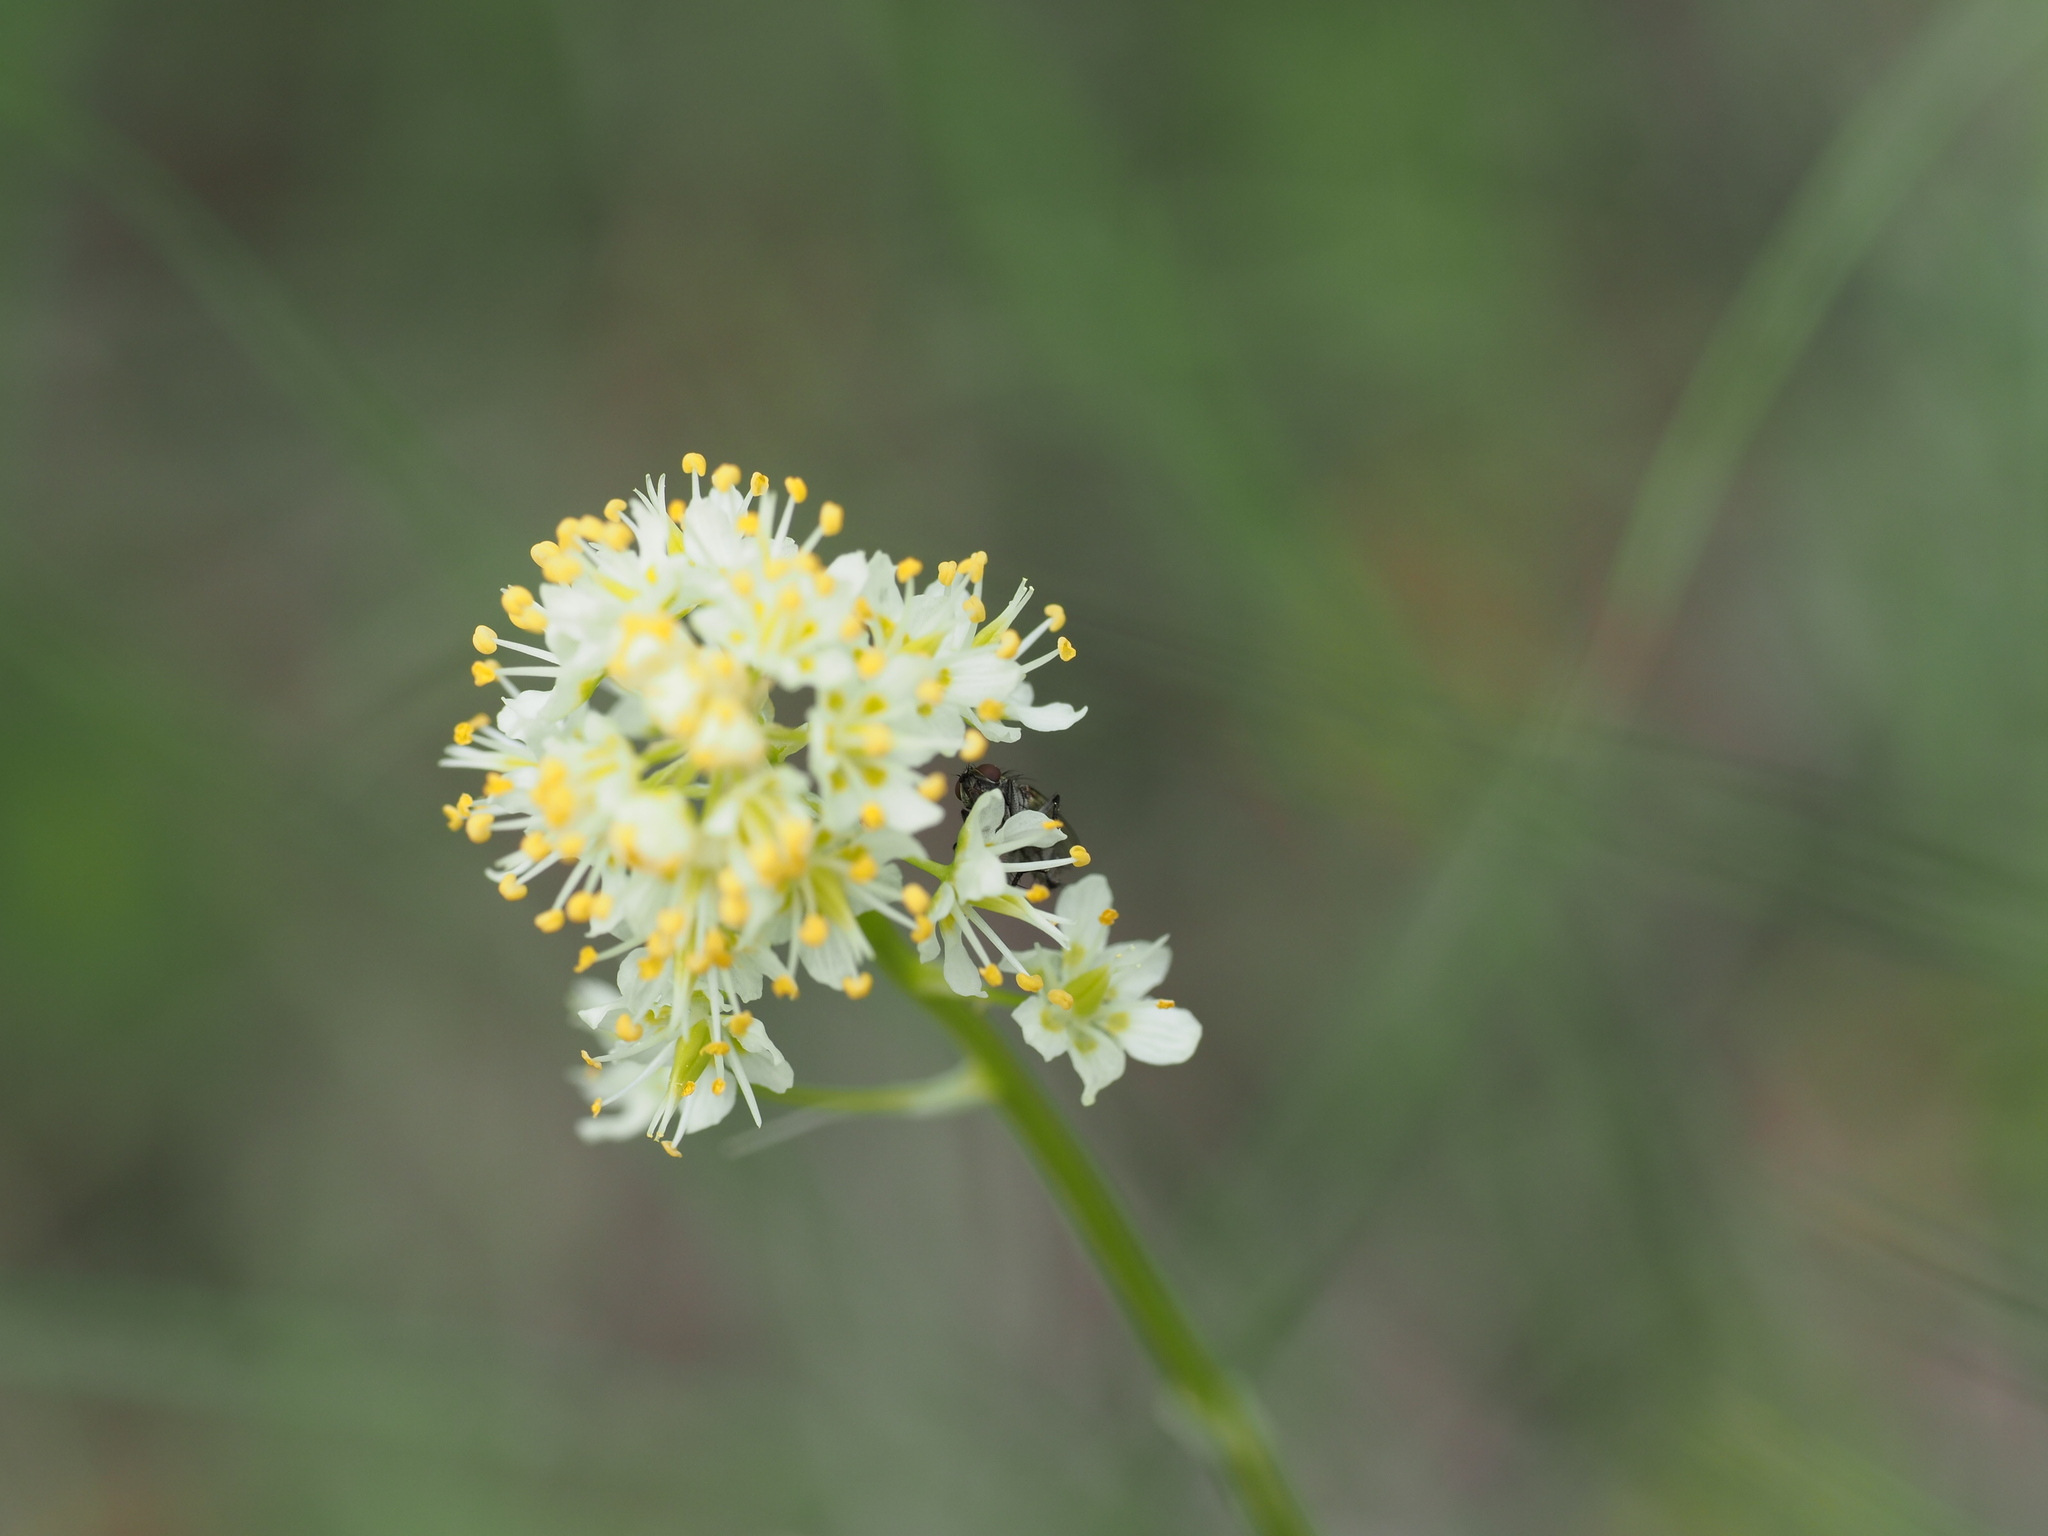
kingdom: Plantae
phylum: Tracheophyta
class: Liliopsida
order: Liliales
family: Melanthiaceae
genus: Toxicoscordion
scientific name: Toxicoscordion venenosum
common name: Meadow death camas
